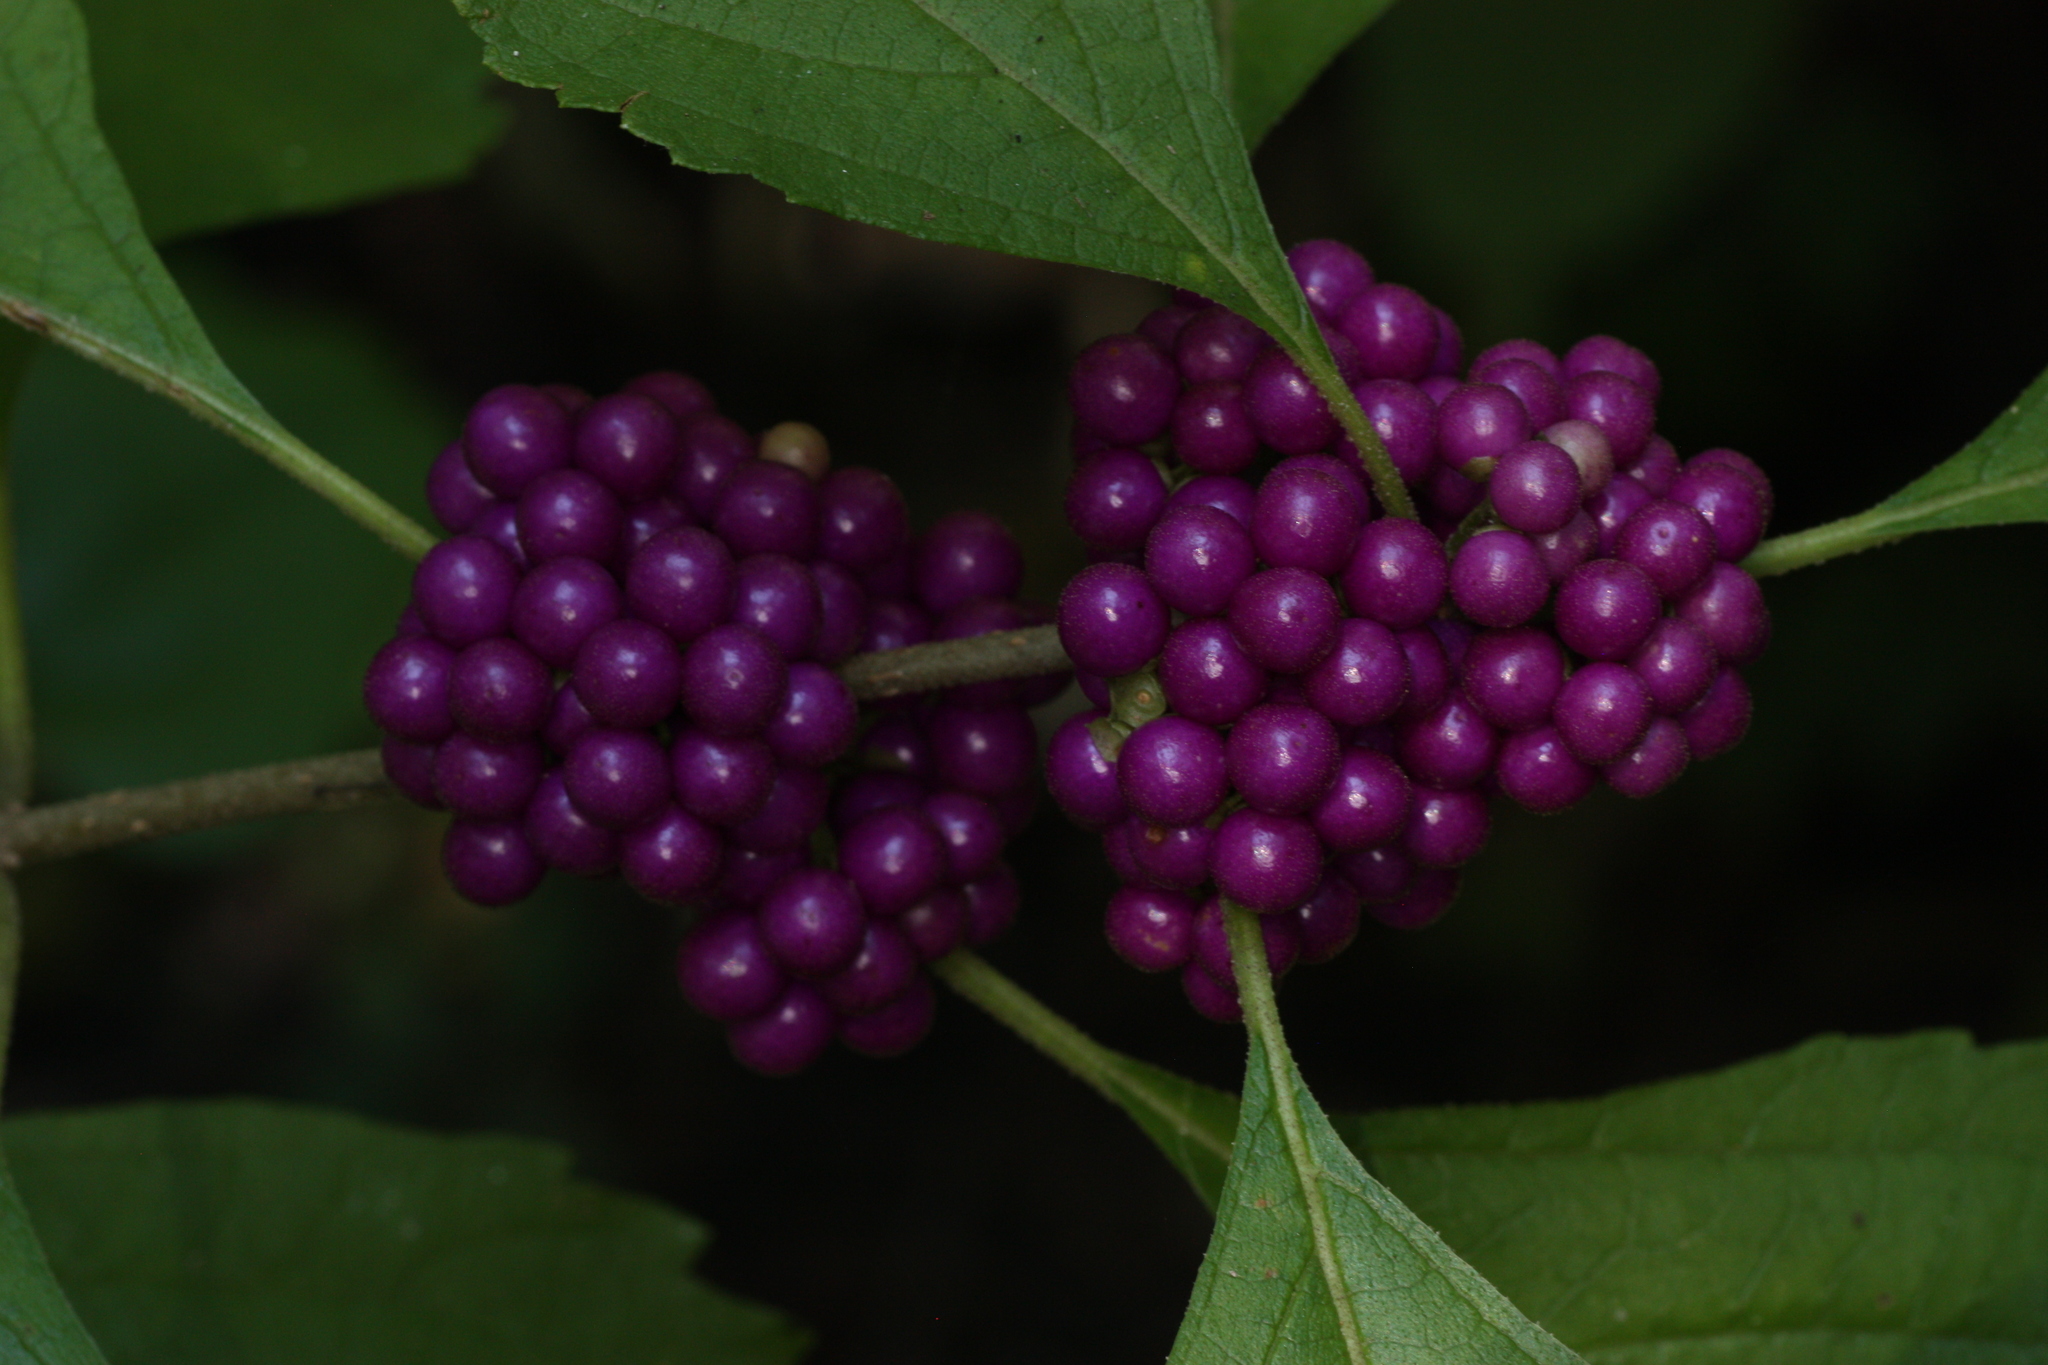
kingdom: Plantae
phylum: Tracheophyta
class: Magnoliopsida
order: Lamiales
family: Lamiaceae
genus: Callicarpa
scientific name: Callicarpa americana
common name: American beautyberry
